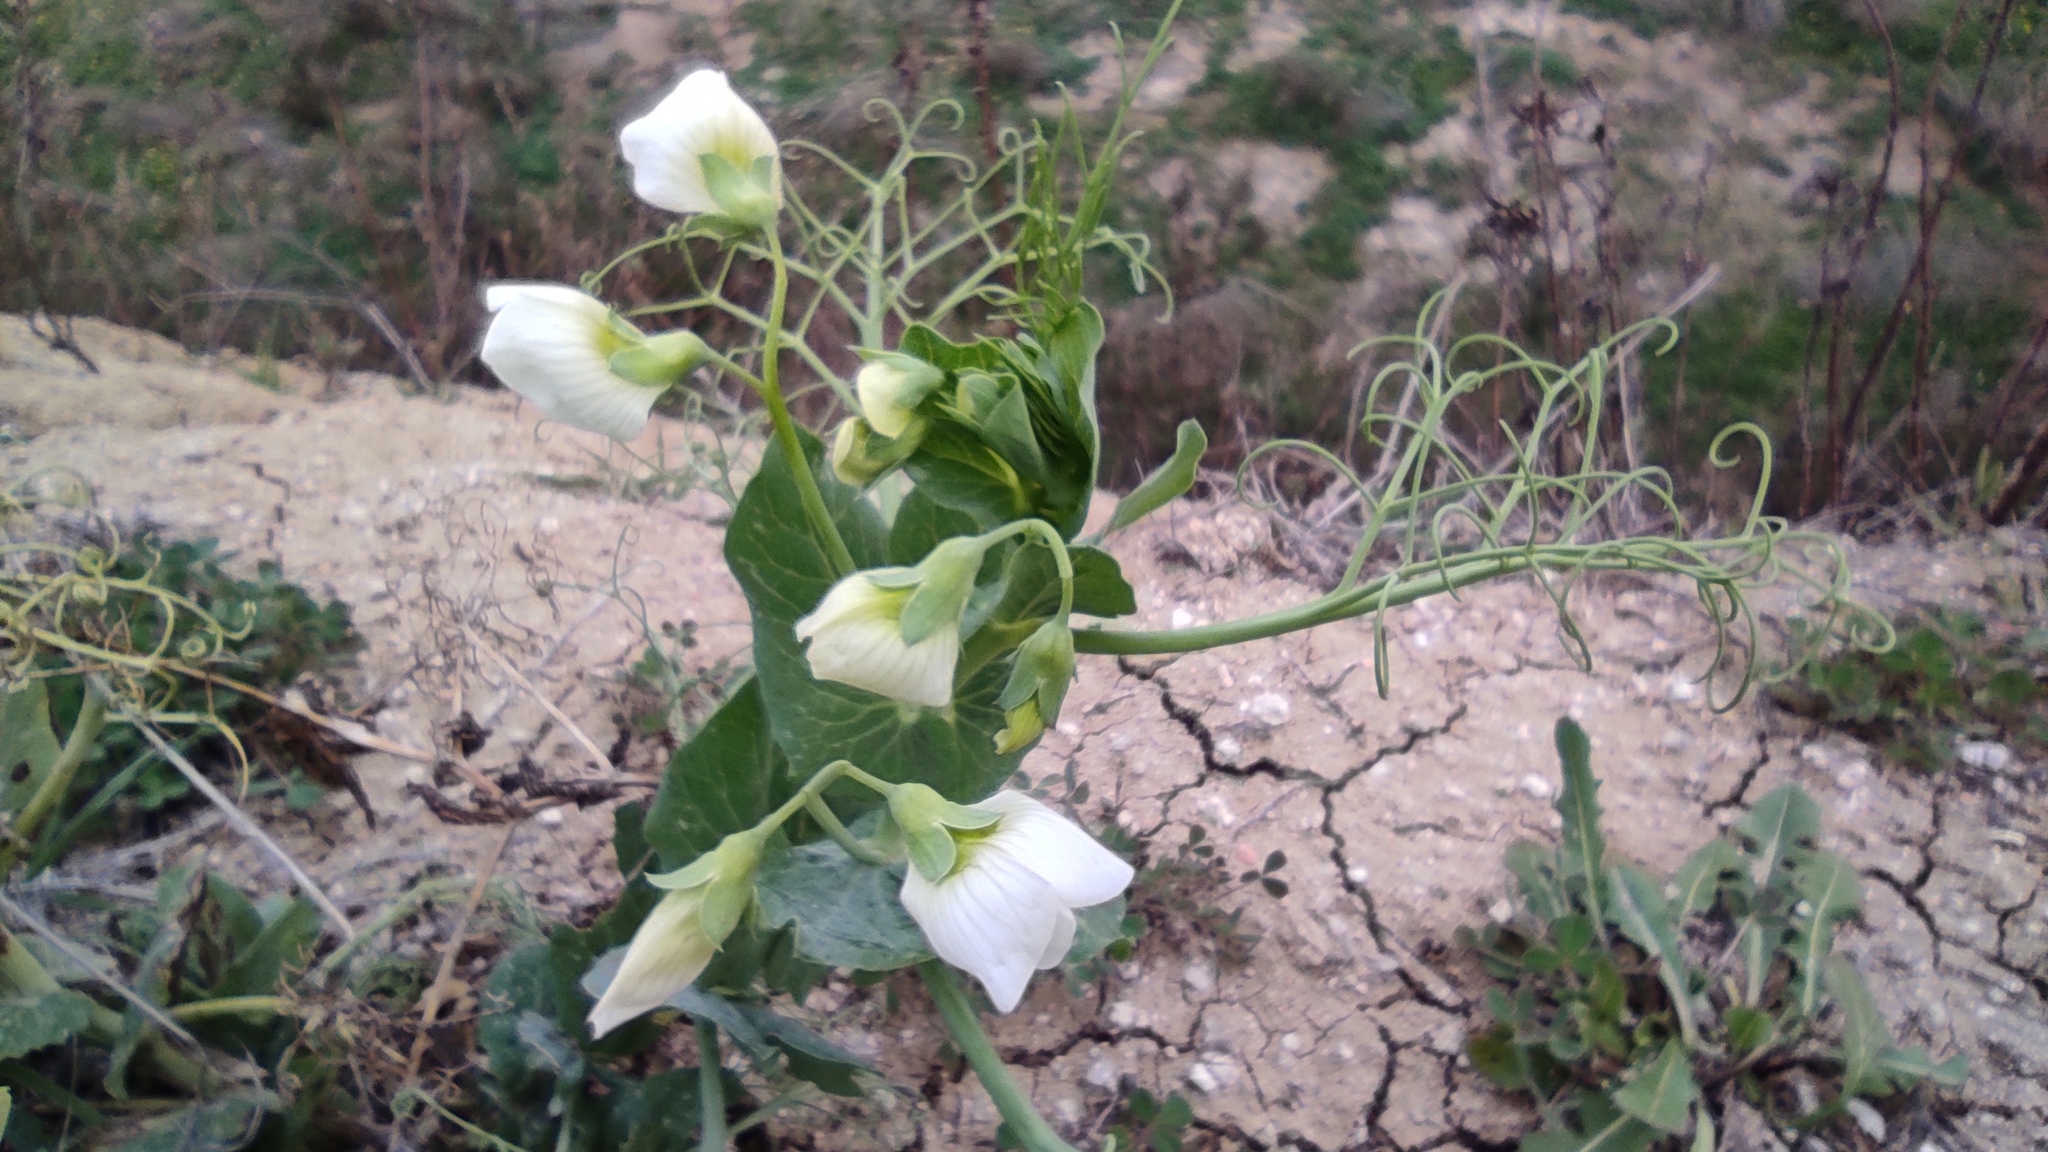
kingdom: Plantae
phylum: Tracheophyta
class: Magnoliopsida
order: Fabales
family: Fabaceae
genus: Lathyrus
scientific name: Lathyrus oleraceus
